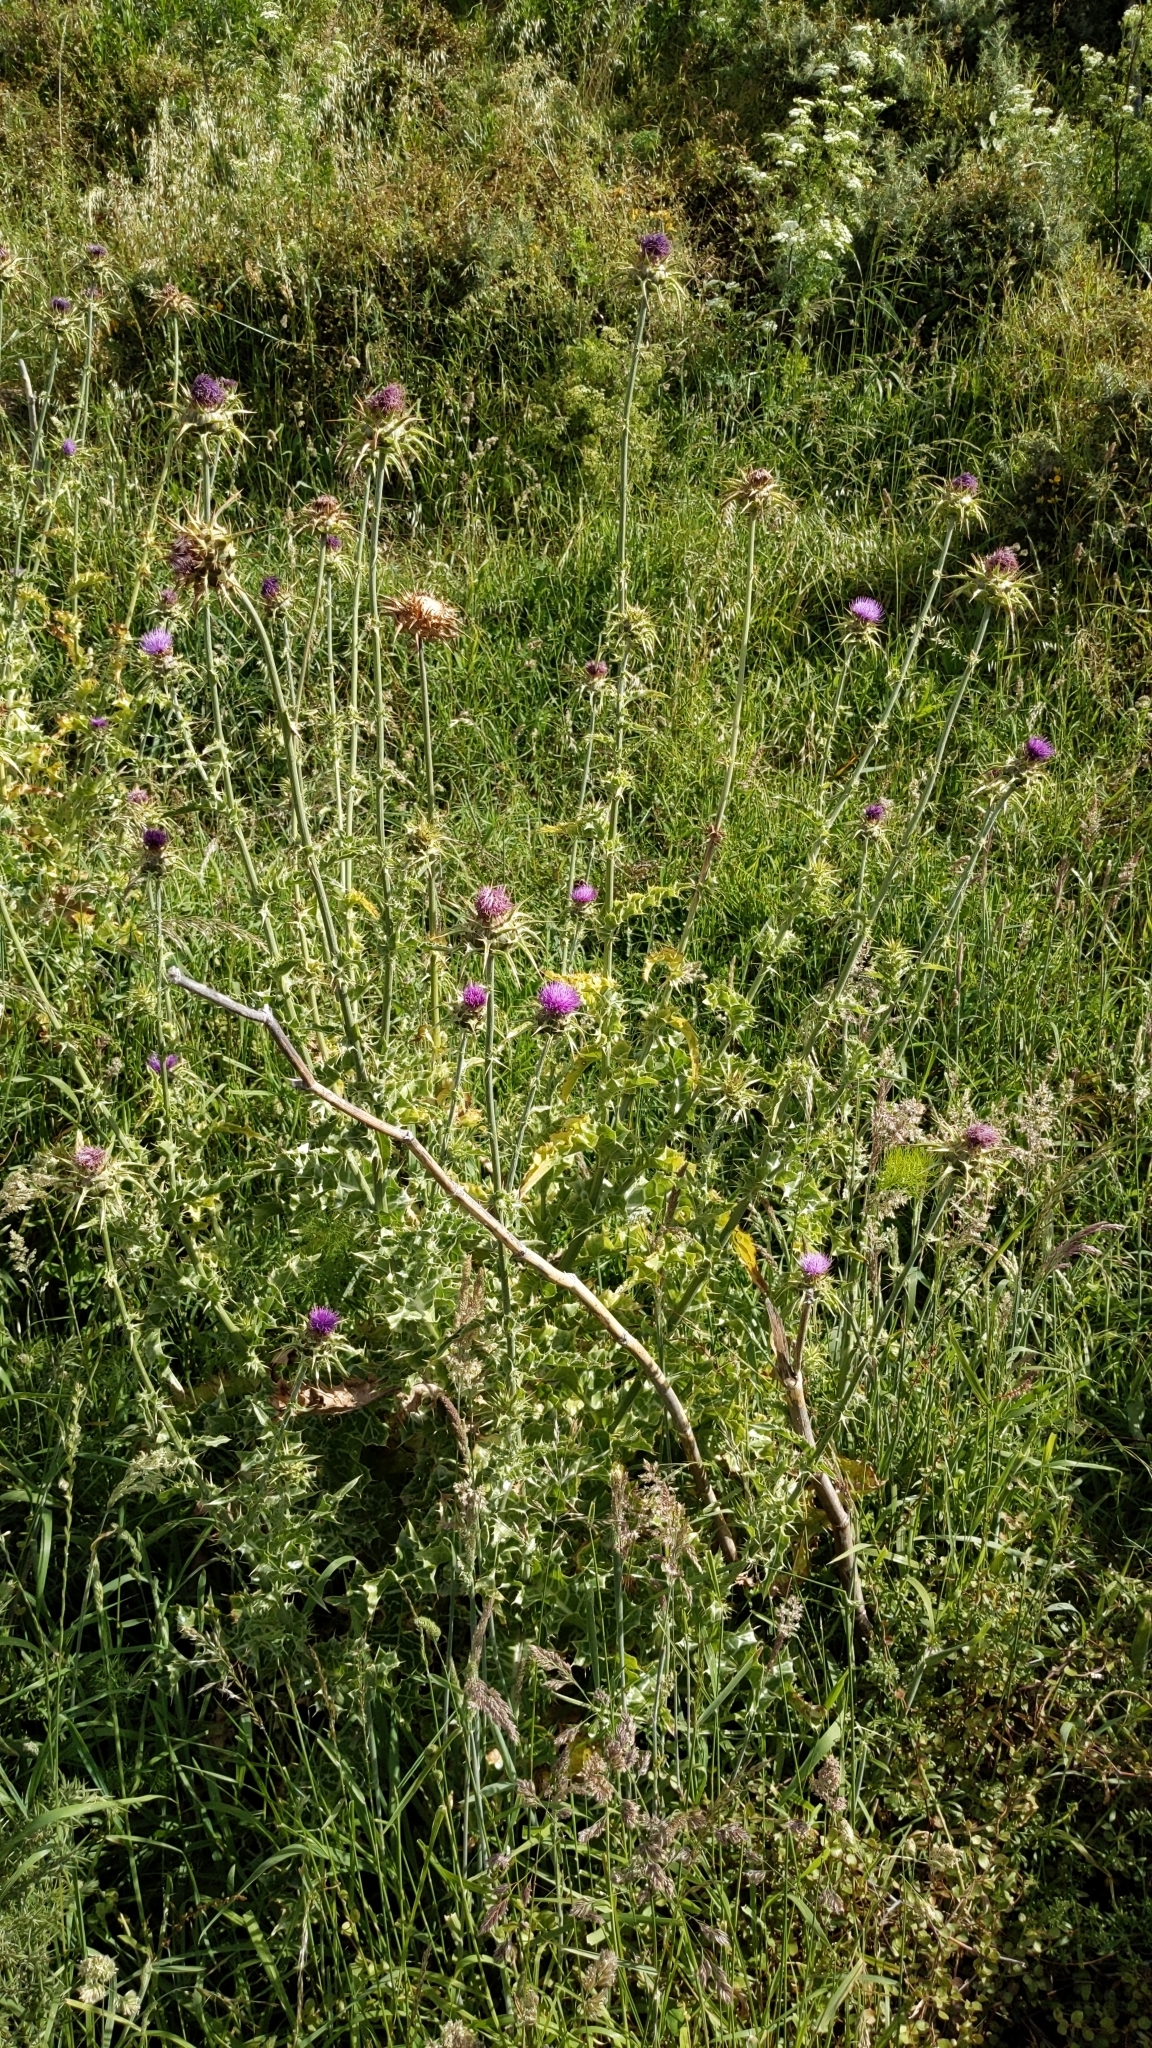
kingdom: Plantae
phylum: Tracheophyta
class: Magnoliopsida
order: Asterales
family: Asteraceae
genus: Silybum
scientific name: Silybum marianum
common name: Milk thistle
